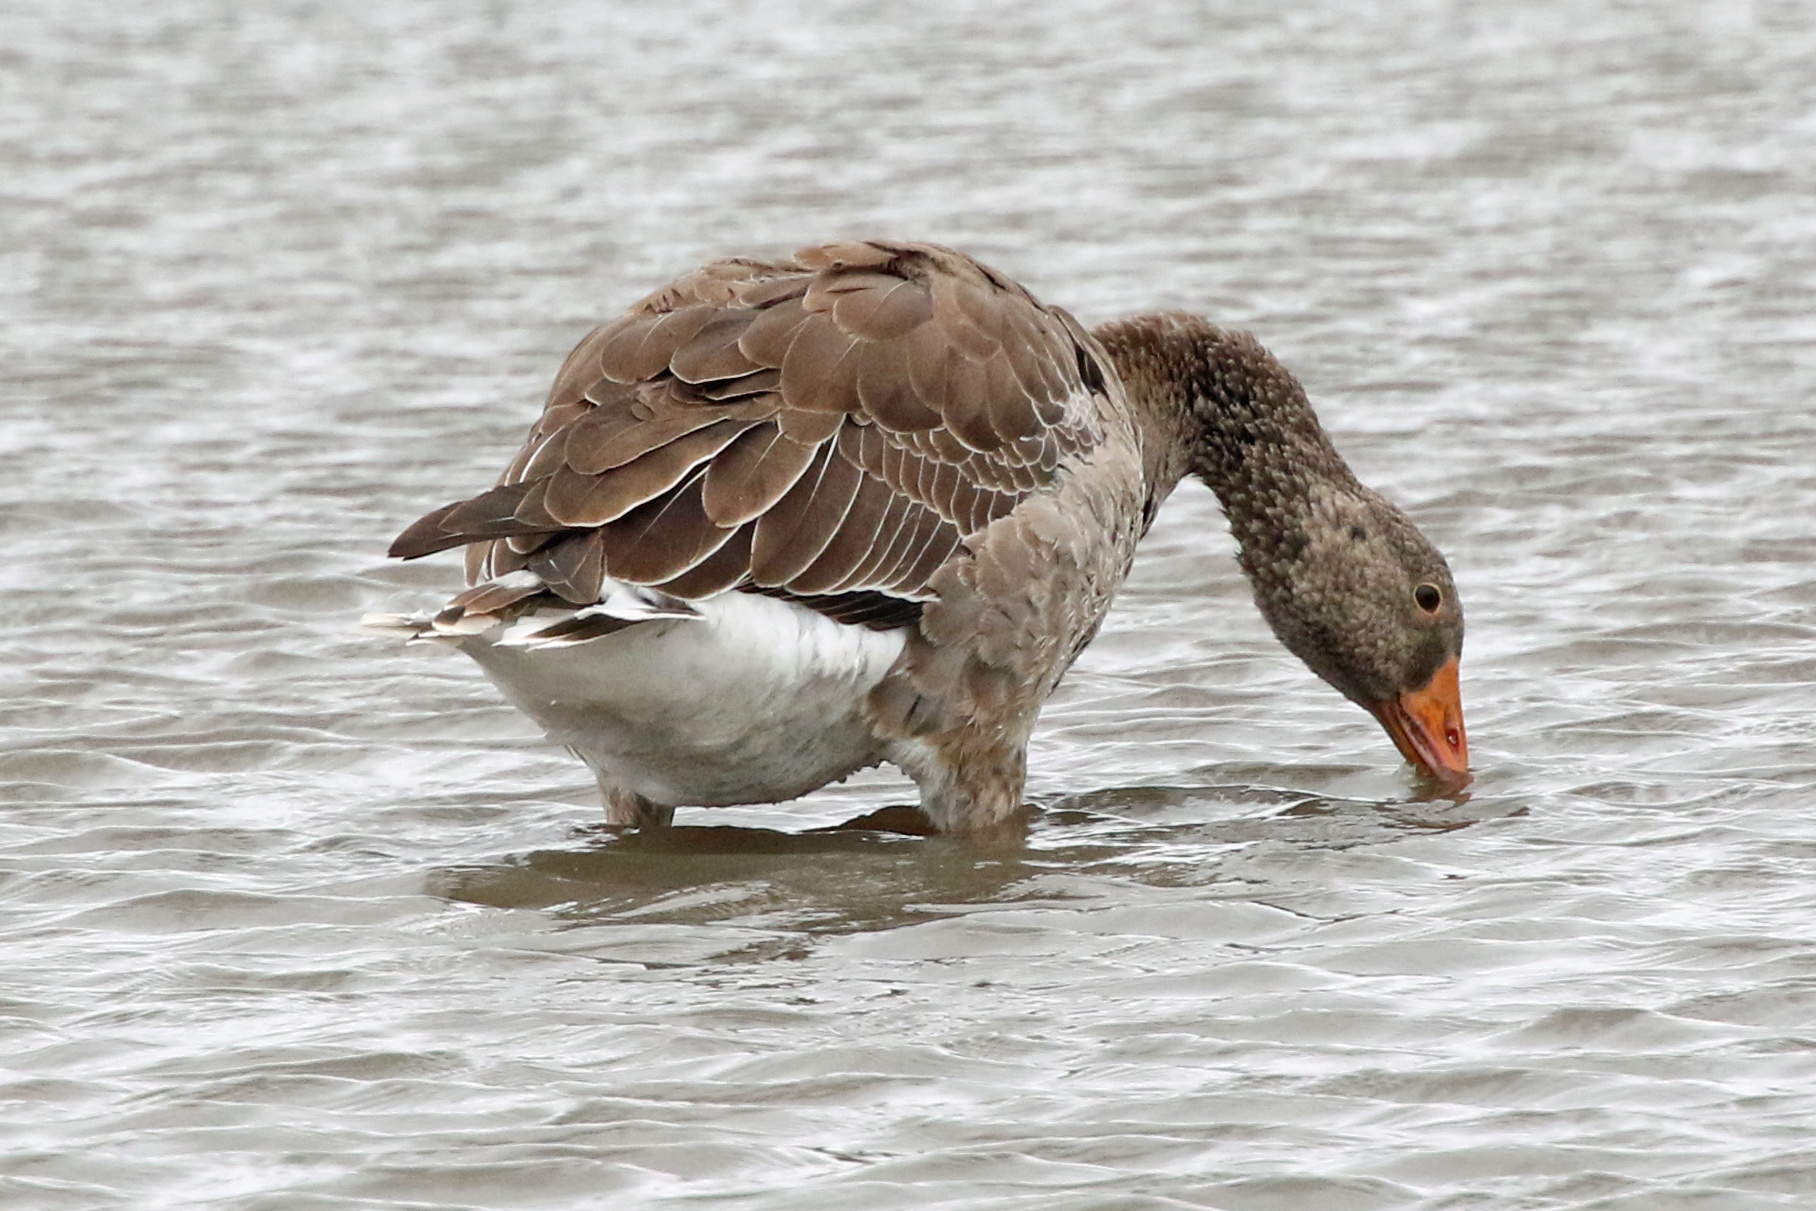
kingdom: Animalia
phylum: Chordata
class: Aves
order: Anseriformes
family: Anatidae
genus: Anser
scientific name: Anser anser
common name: Greylag goose
